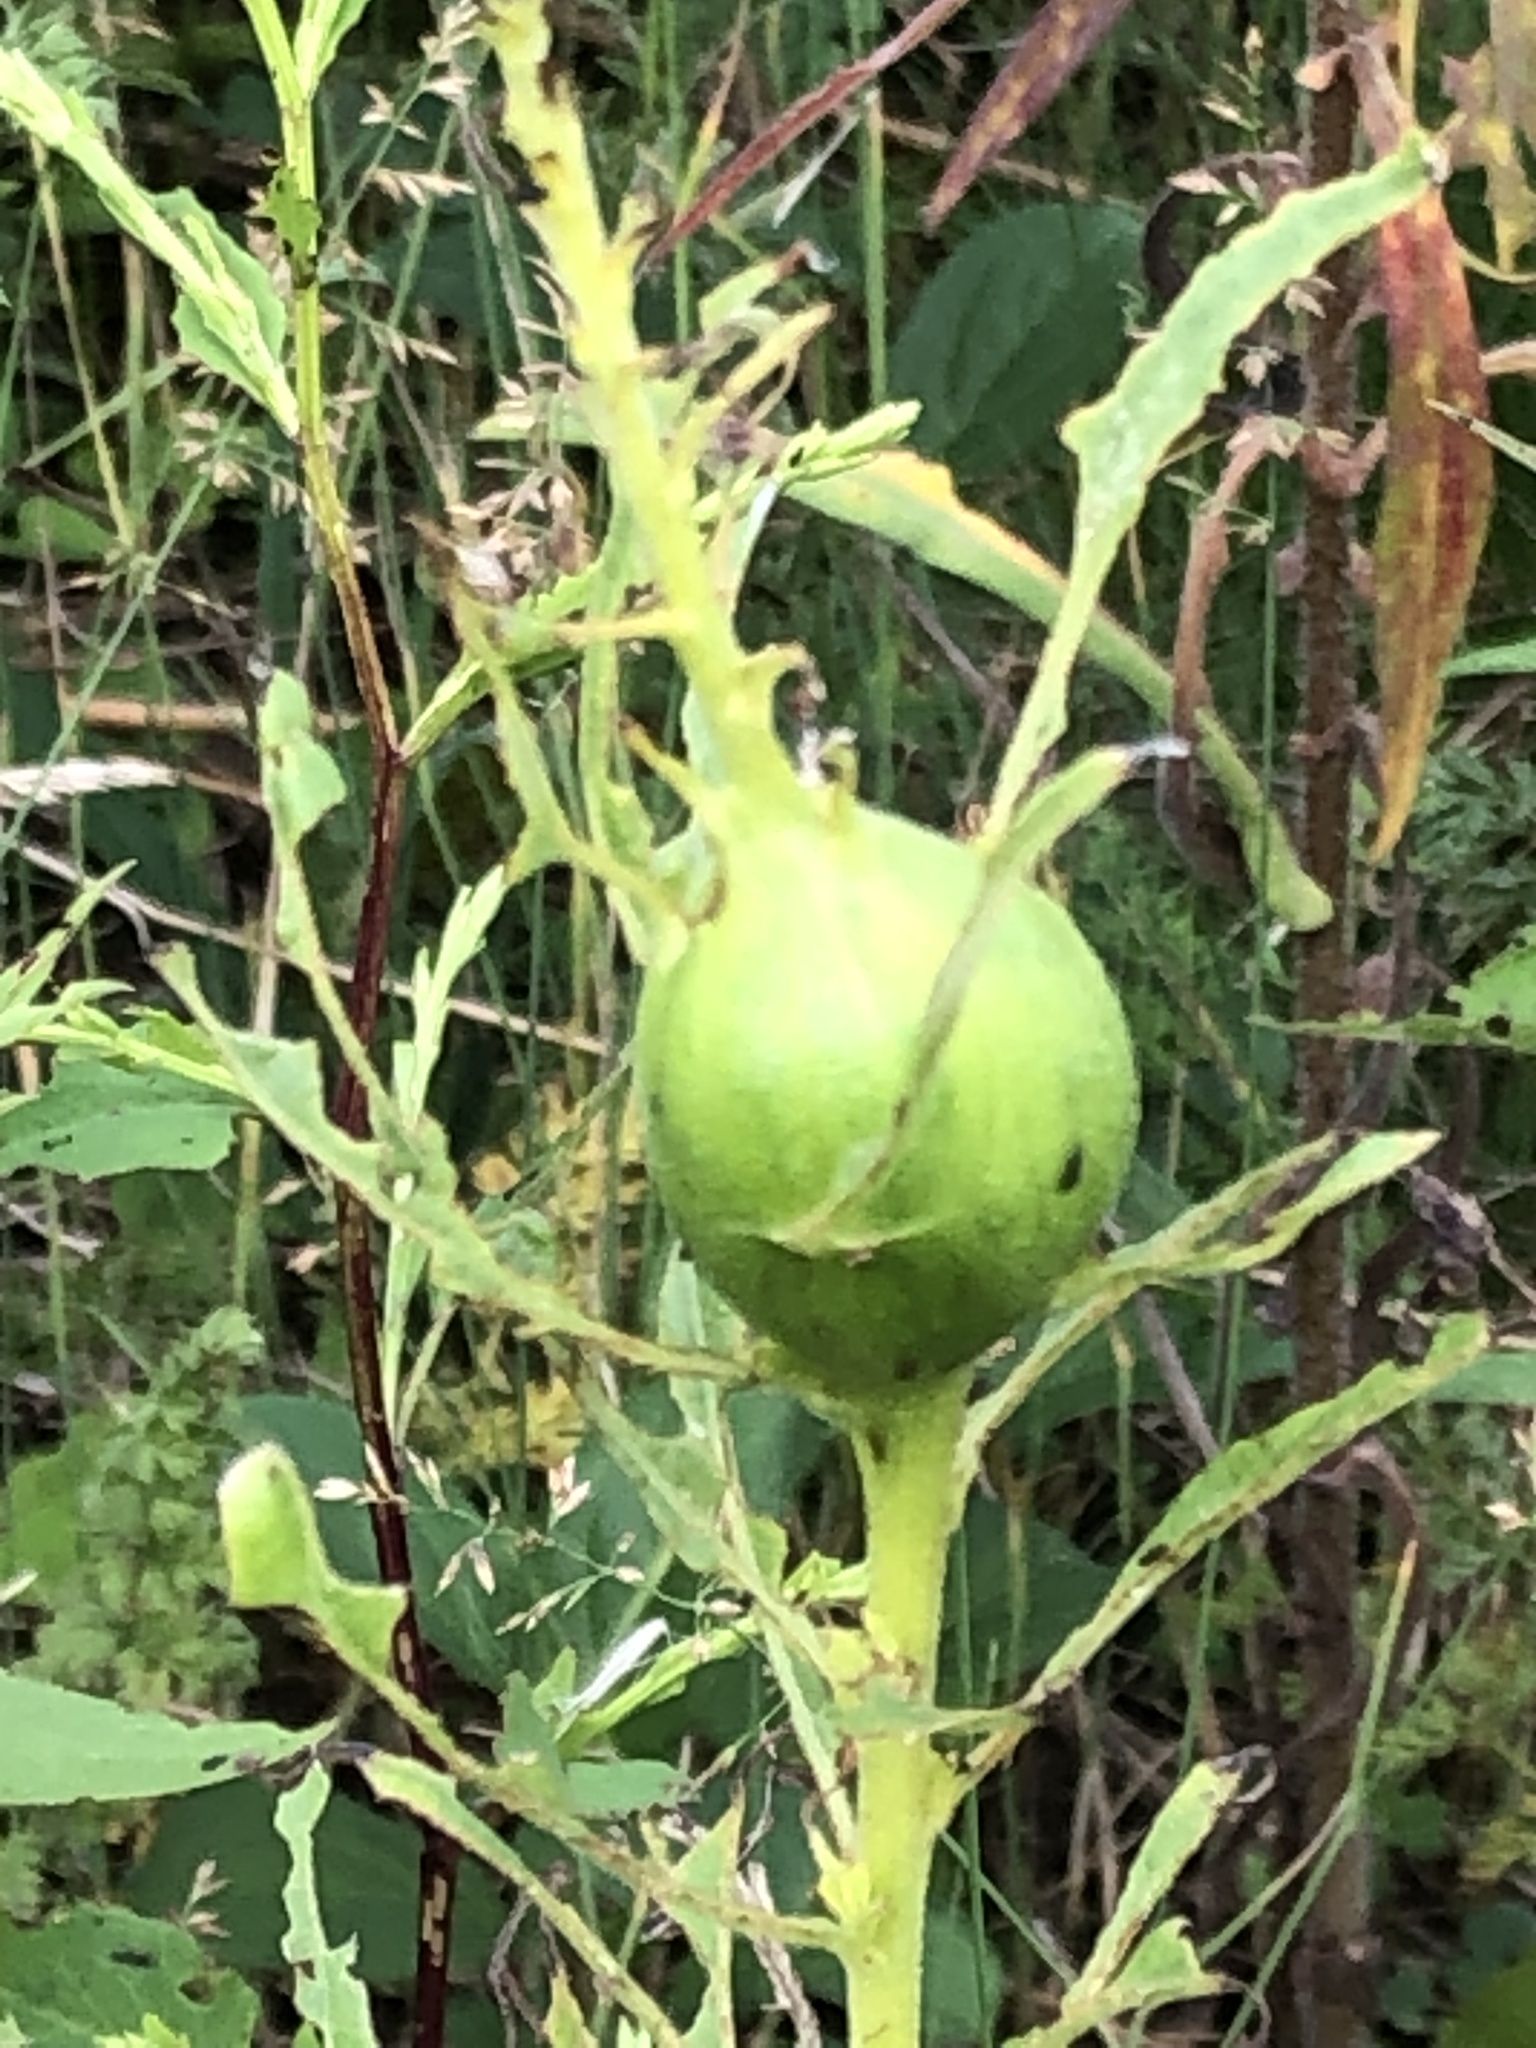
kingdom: Animalia
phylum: Arthropoda
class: Insecta
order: Diptera
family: Tephritidae
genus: Eurosta
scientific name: Eurosta solidaginis
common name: Goldenrod gall fly
